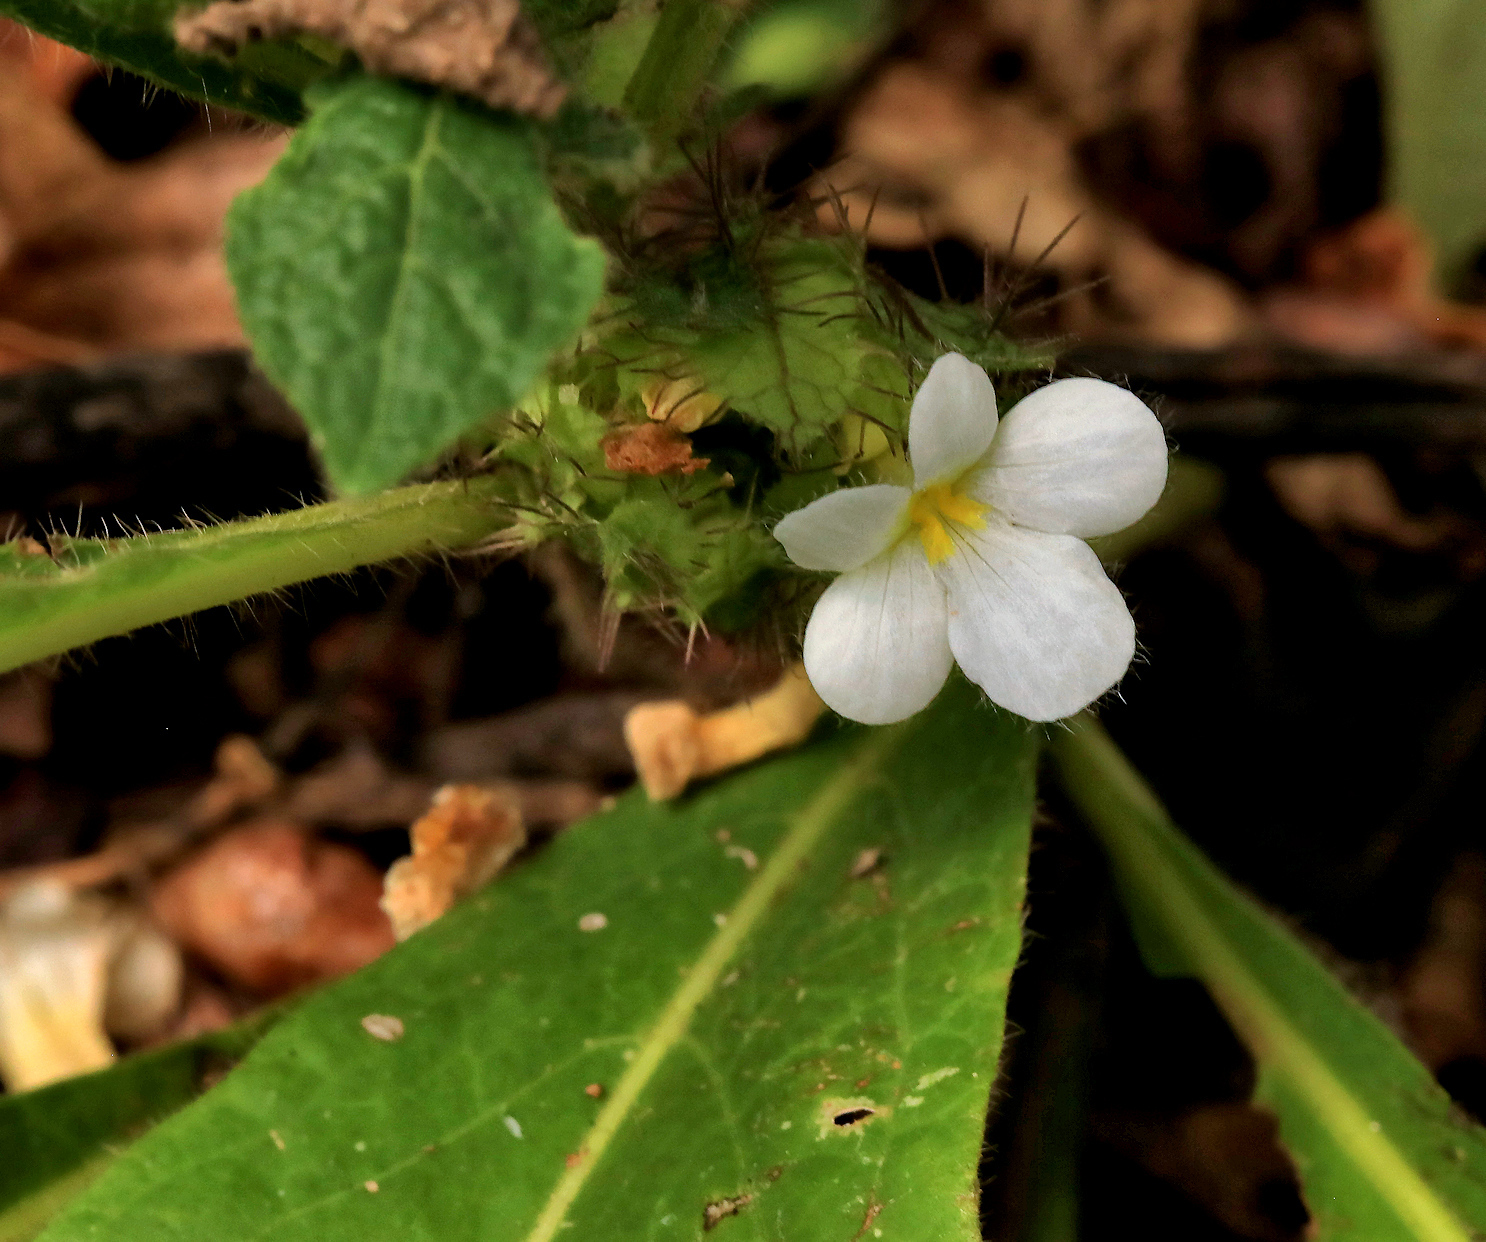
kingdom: Plantae
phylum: Tracheophyta
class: Magnoliopsida
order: Lamiales
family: Acanthaceae
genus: Crabbea
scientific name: Crabbea velutina
